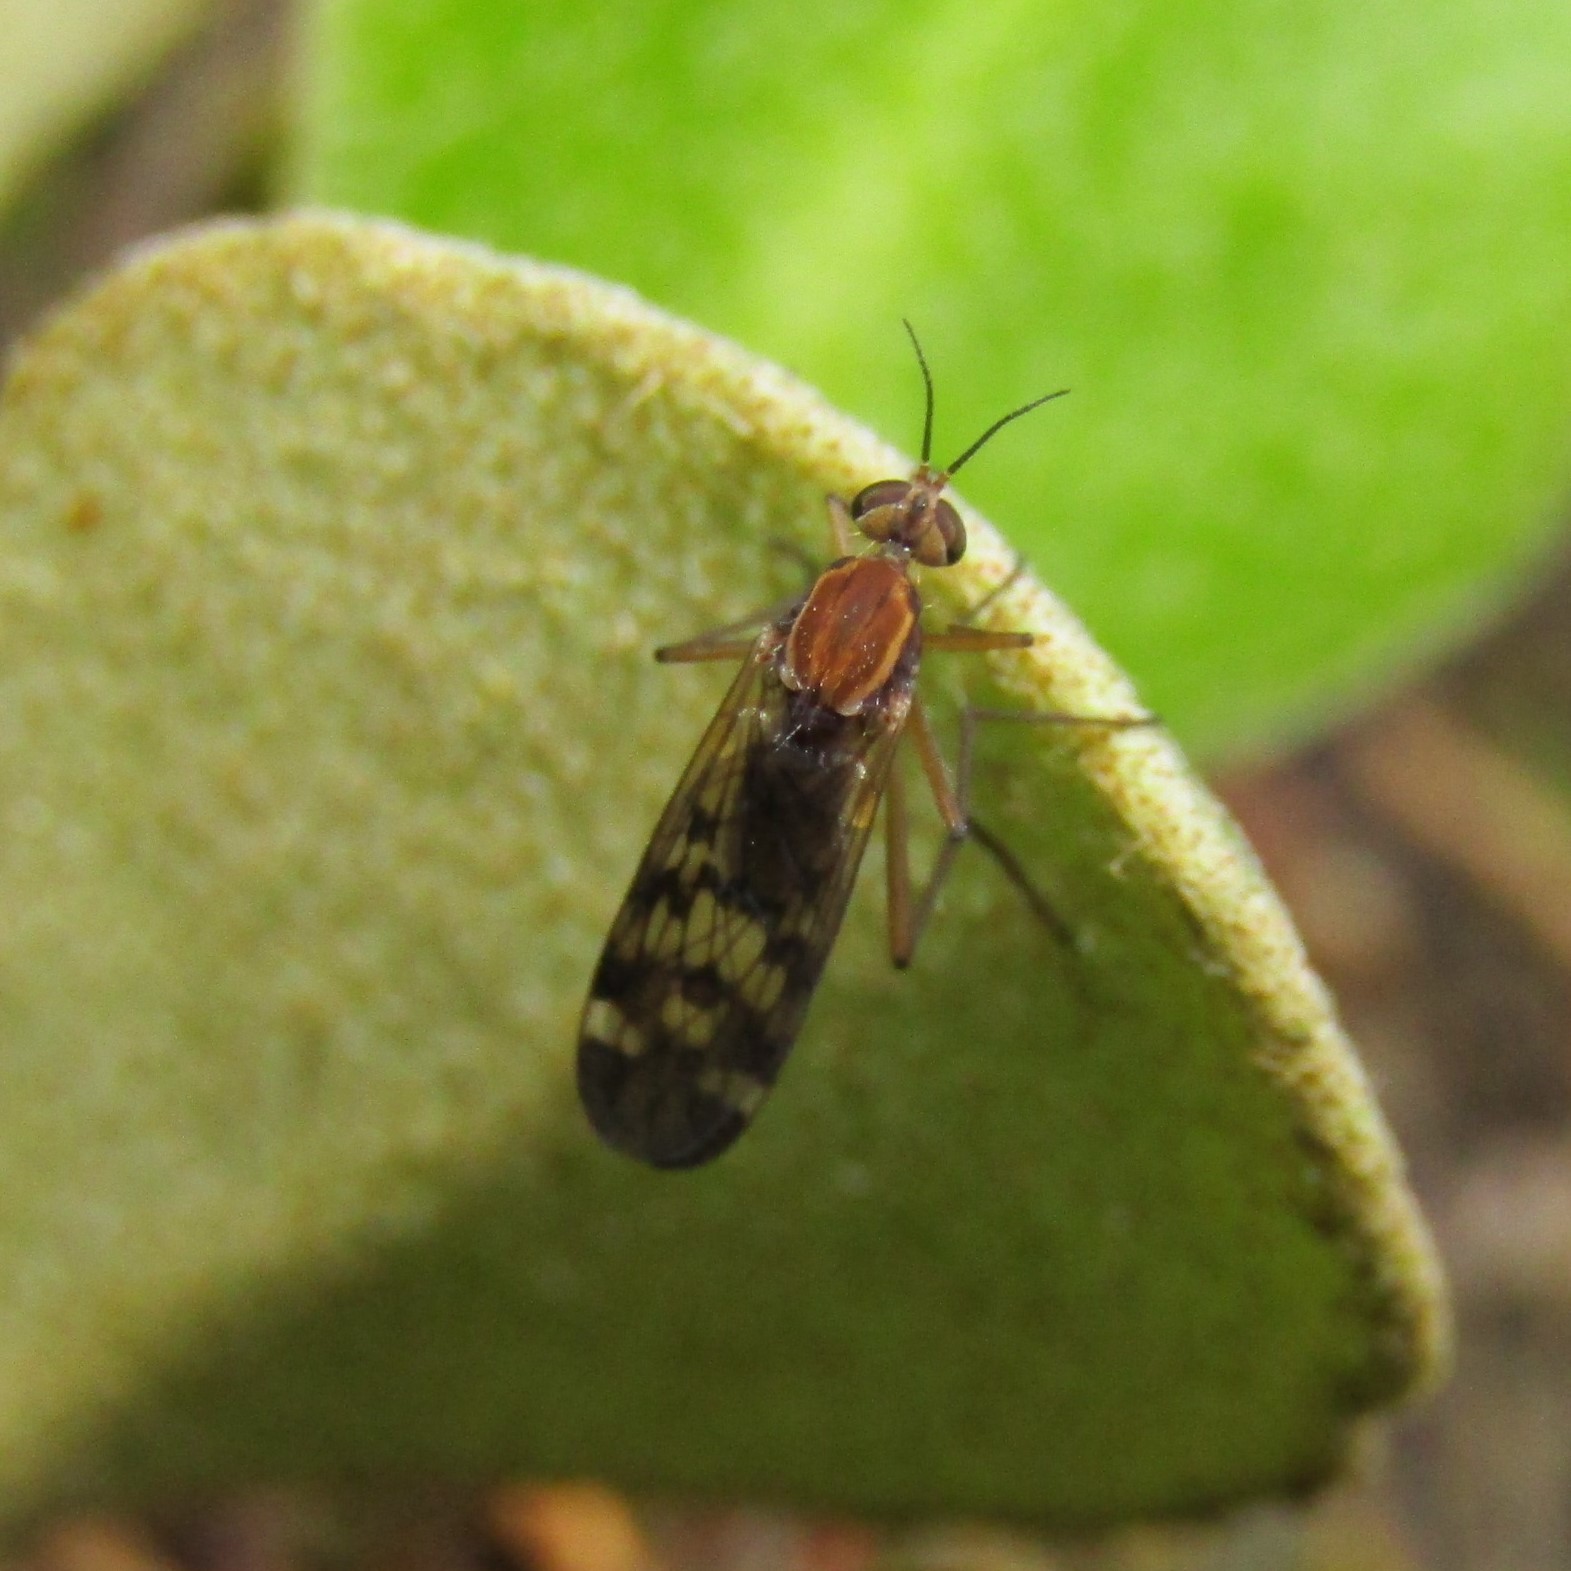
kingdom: Animalia
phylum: Arthropoda
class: Insecta
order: Diptera
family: Anisopodidae
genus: Sylvicola
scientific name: Sylvicola notatus
